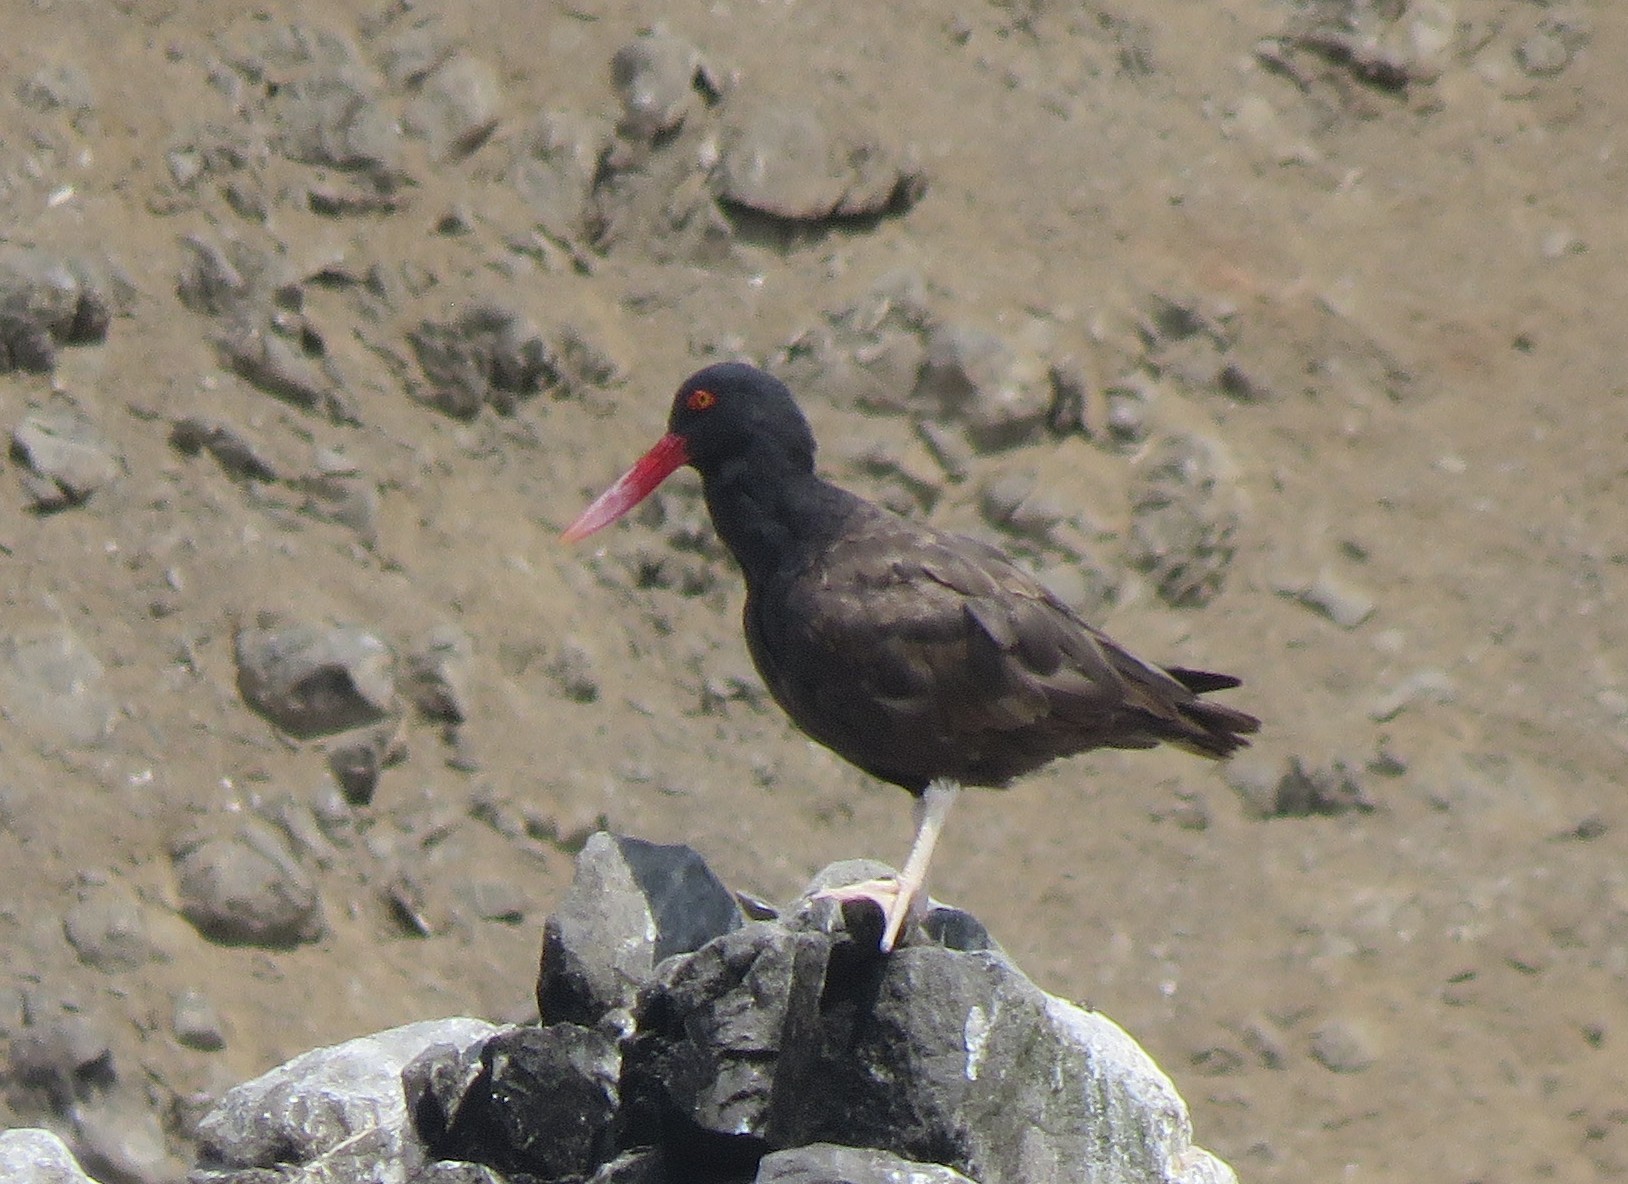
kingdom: Animalia
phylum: Chordata
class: Aves
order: Charadriiformes
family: Haematopodidae
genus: Haematopus
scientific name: Haematopus ater
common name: Blackish oystercatcher
